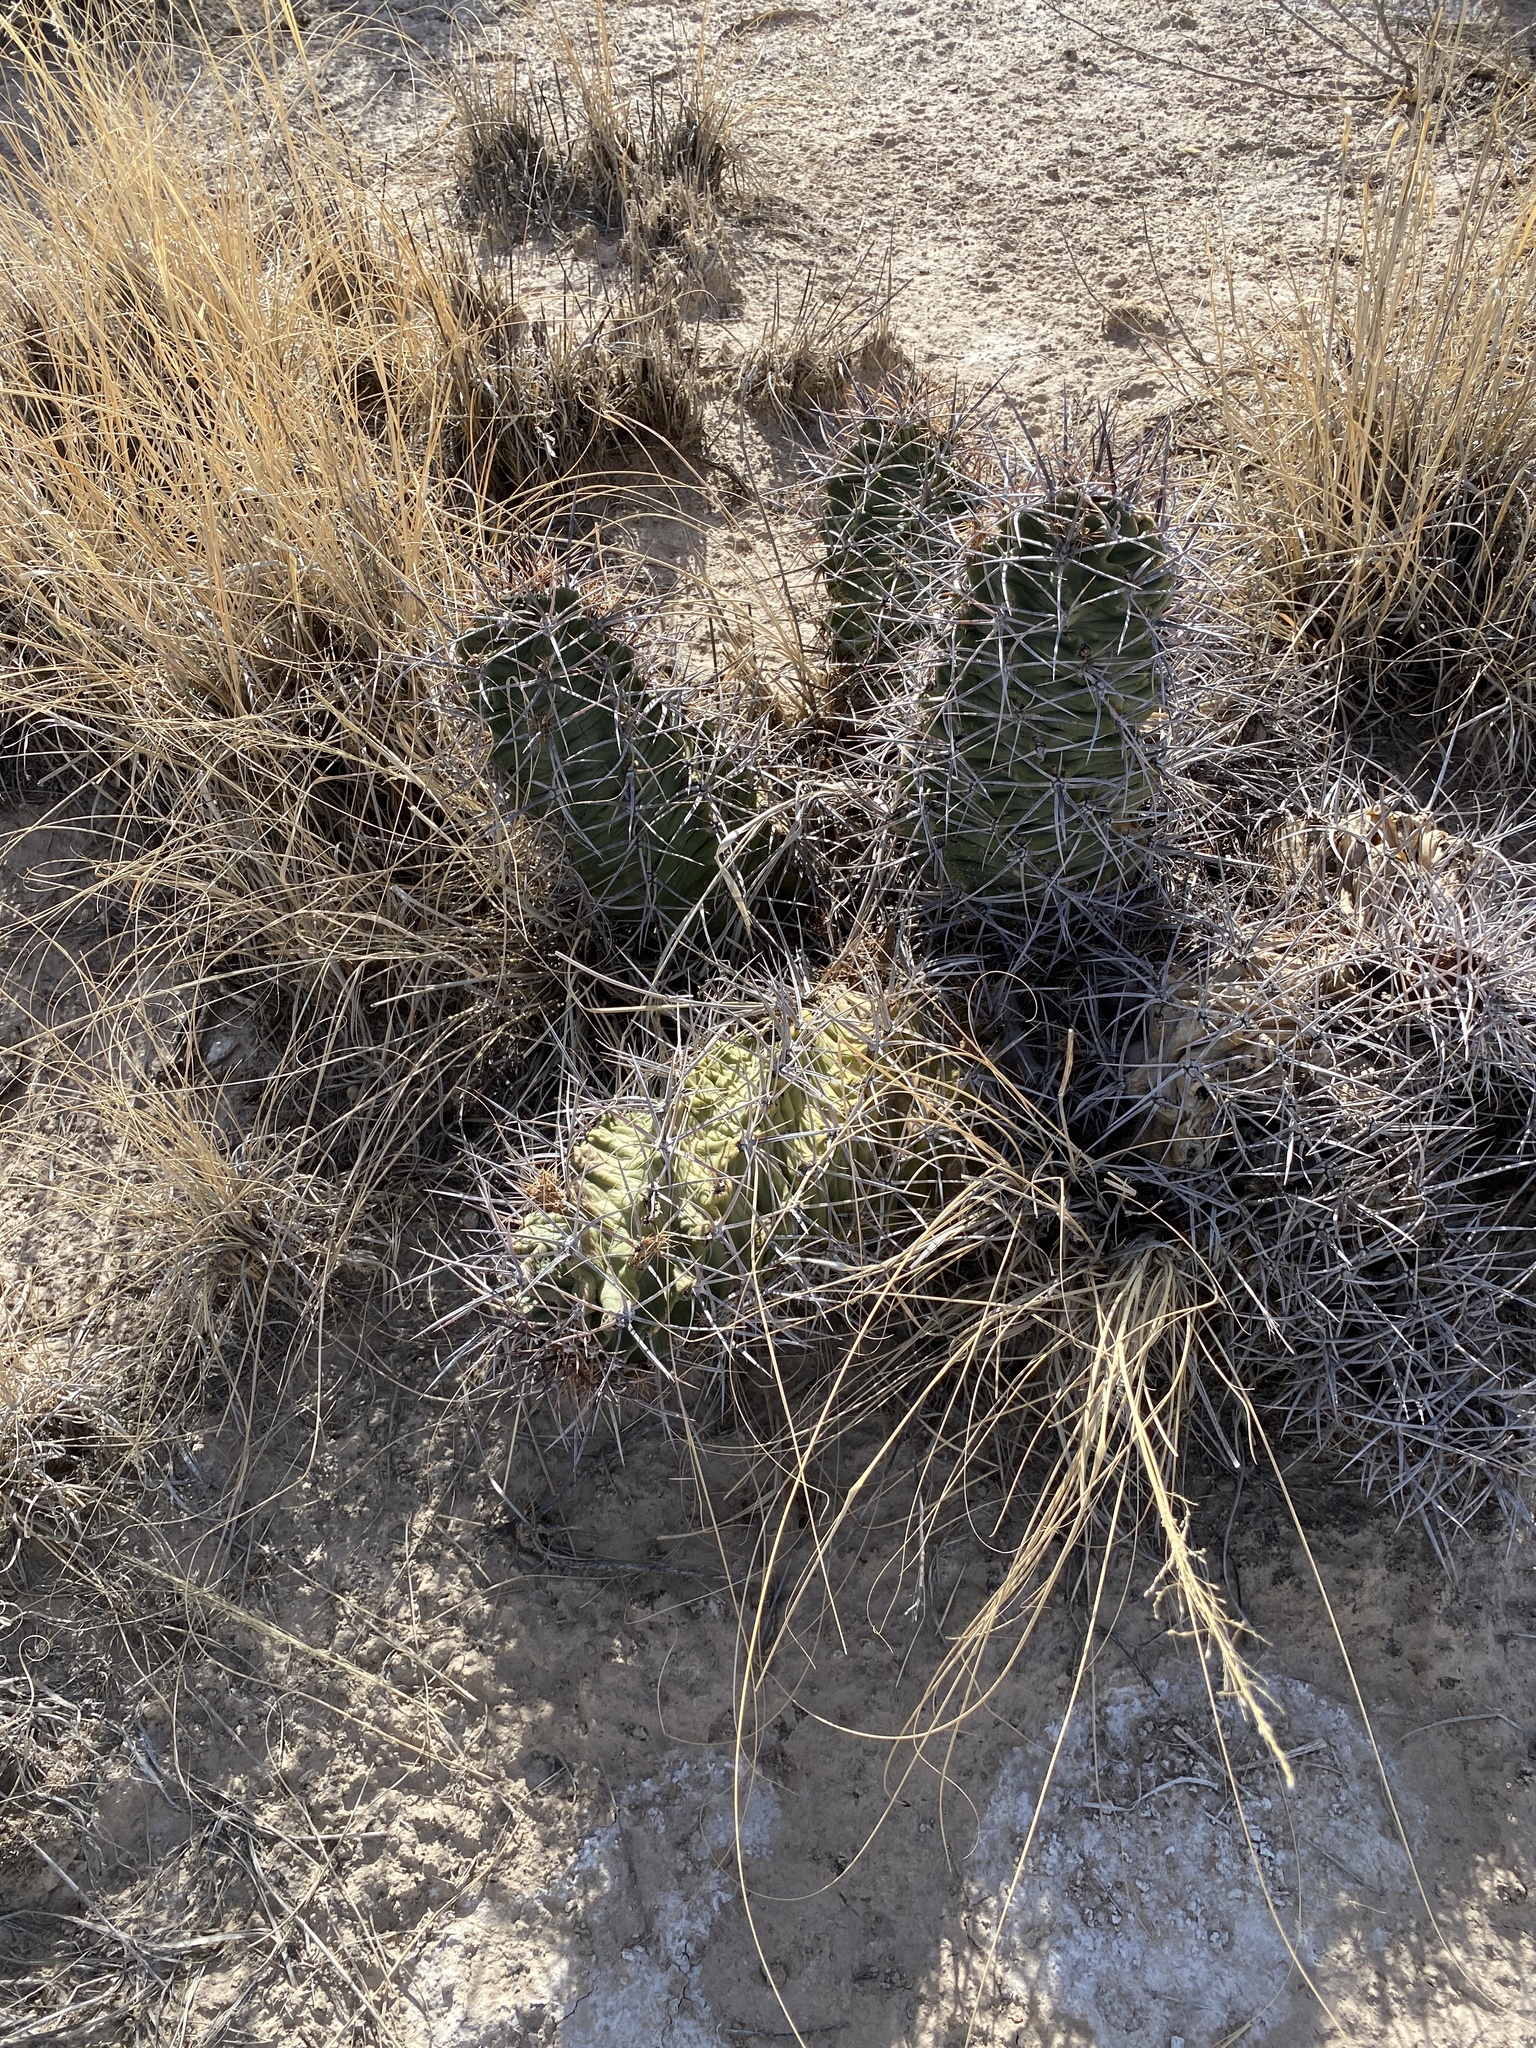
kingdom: Plantae
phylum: Tracheophyta
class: Magnoliopsida
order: Caryophyllales
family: Cactaceae
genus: Echinocereus
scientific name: Echinocereus triglochidiatus
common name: Claretcup hedgehog
